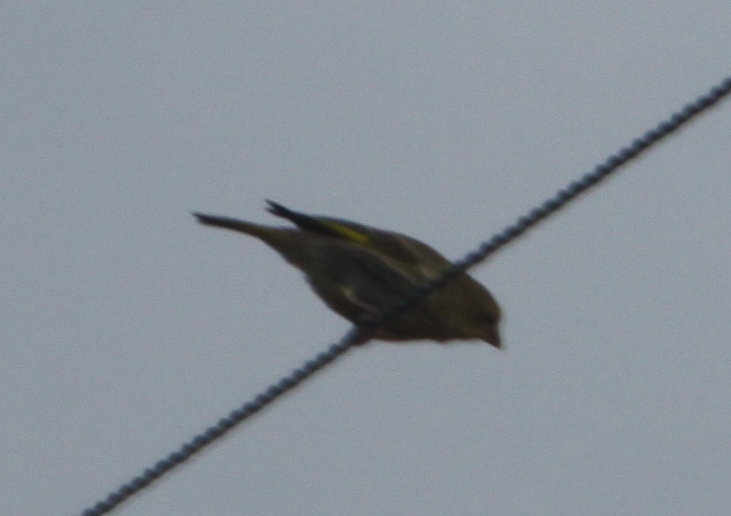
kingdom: Plantae
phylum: Tracheophyta
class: Liliopsida
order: Poales
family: Poaceae
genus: Chloris
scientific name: Chloris chloris
